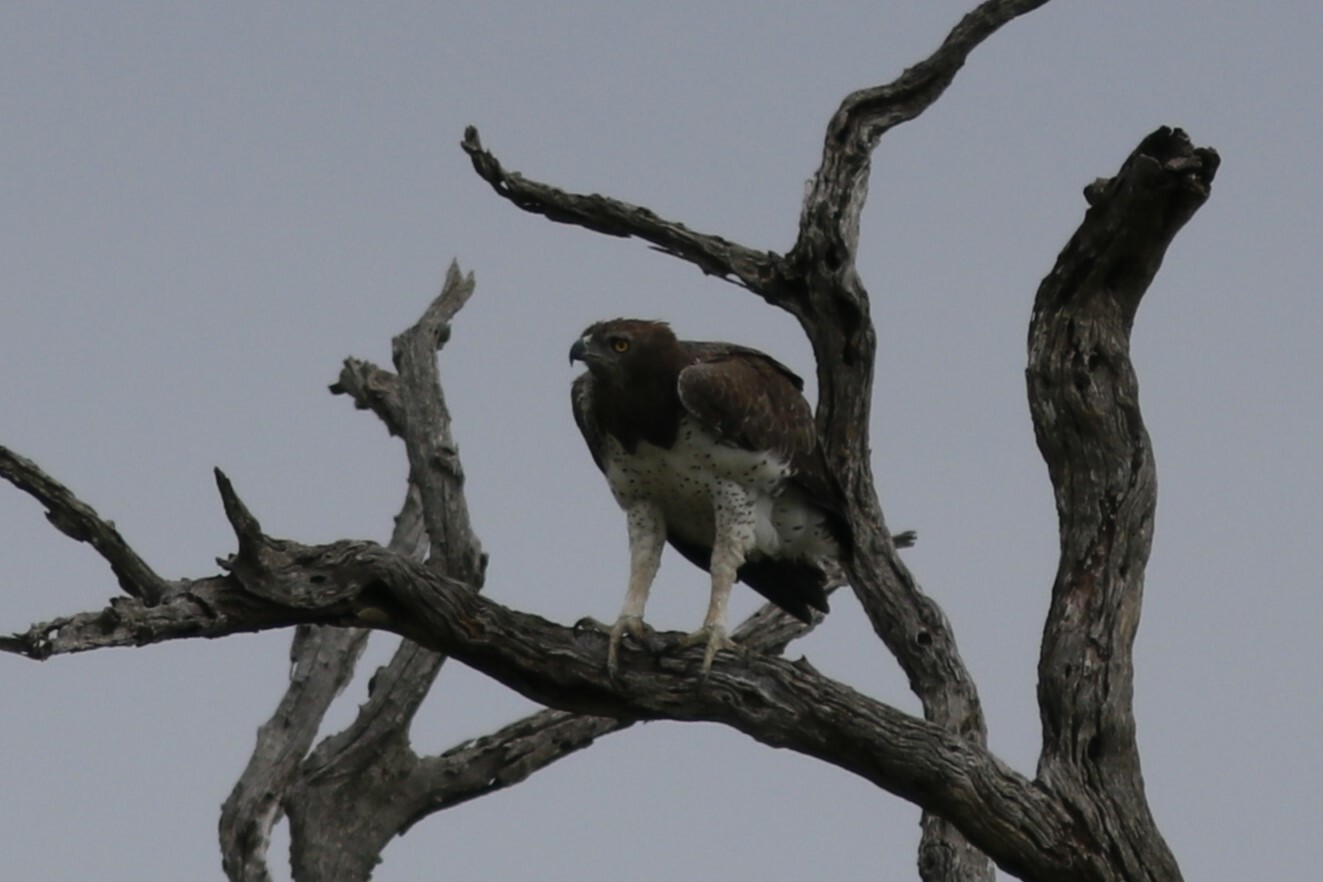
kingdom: Animalia
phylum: Chordata
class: Aves
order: Accipitriformes
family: Accipitridae
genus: Polemaetus
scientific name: Polemaetus bellicosus
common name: Martial eagle
